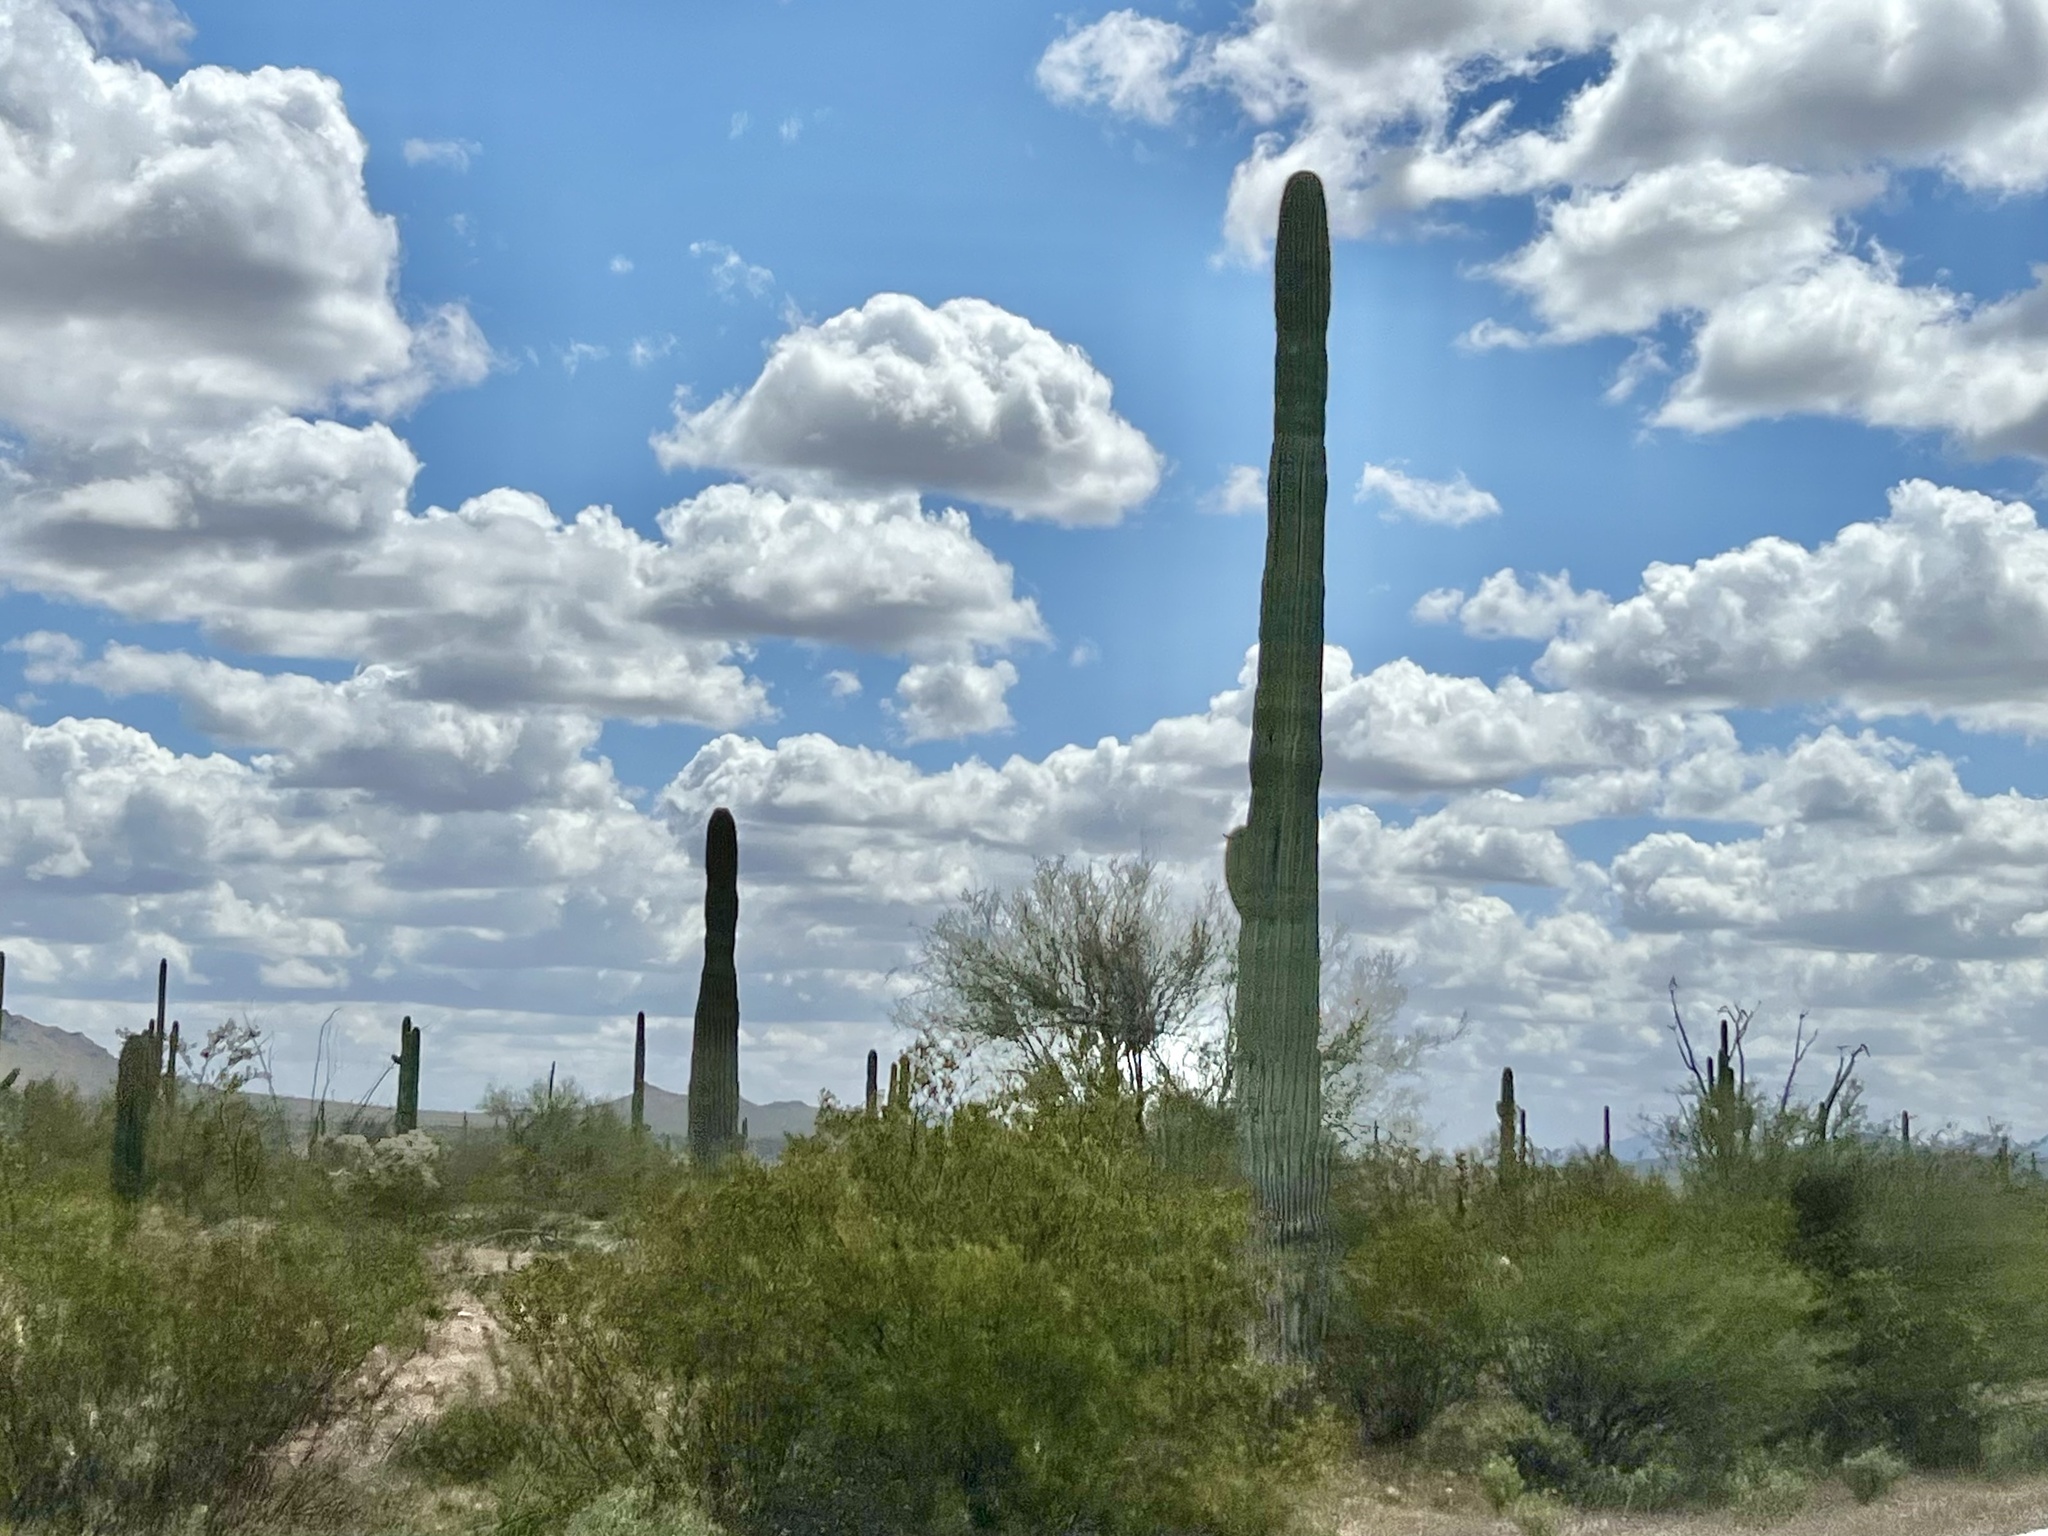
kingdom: Plantae
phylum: Tracheophyta
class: Magnoliopsida
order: Caryophyllales
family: Cactaceae
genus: Carnegiea
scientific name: Carnegiea gigantea
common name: Saguaro
